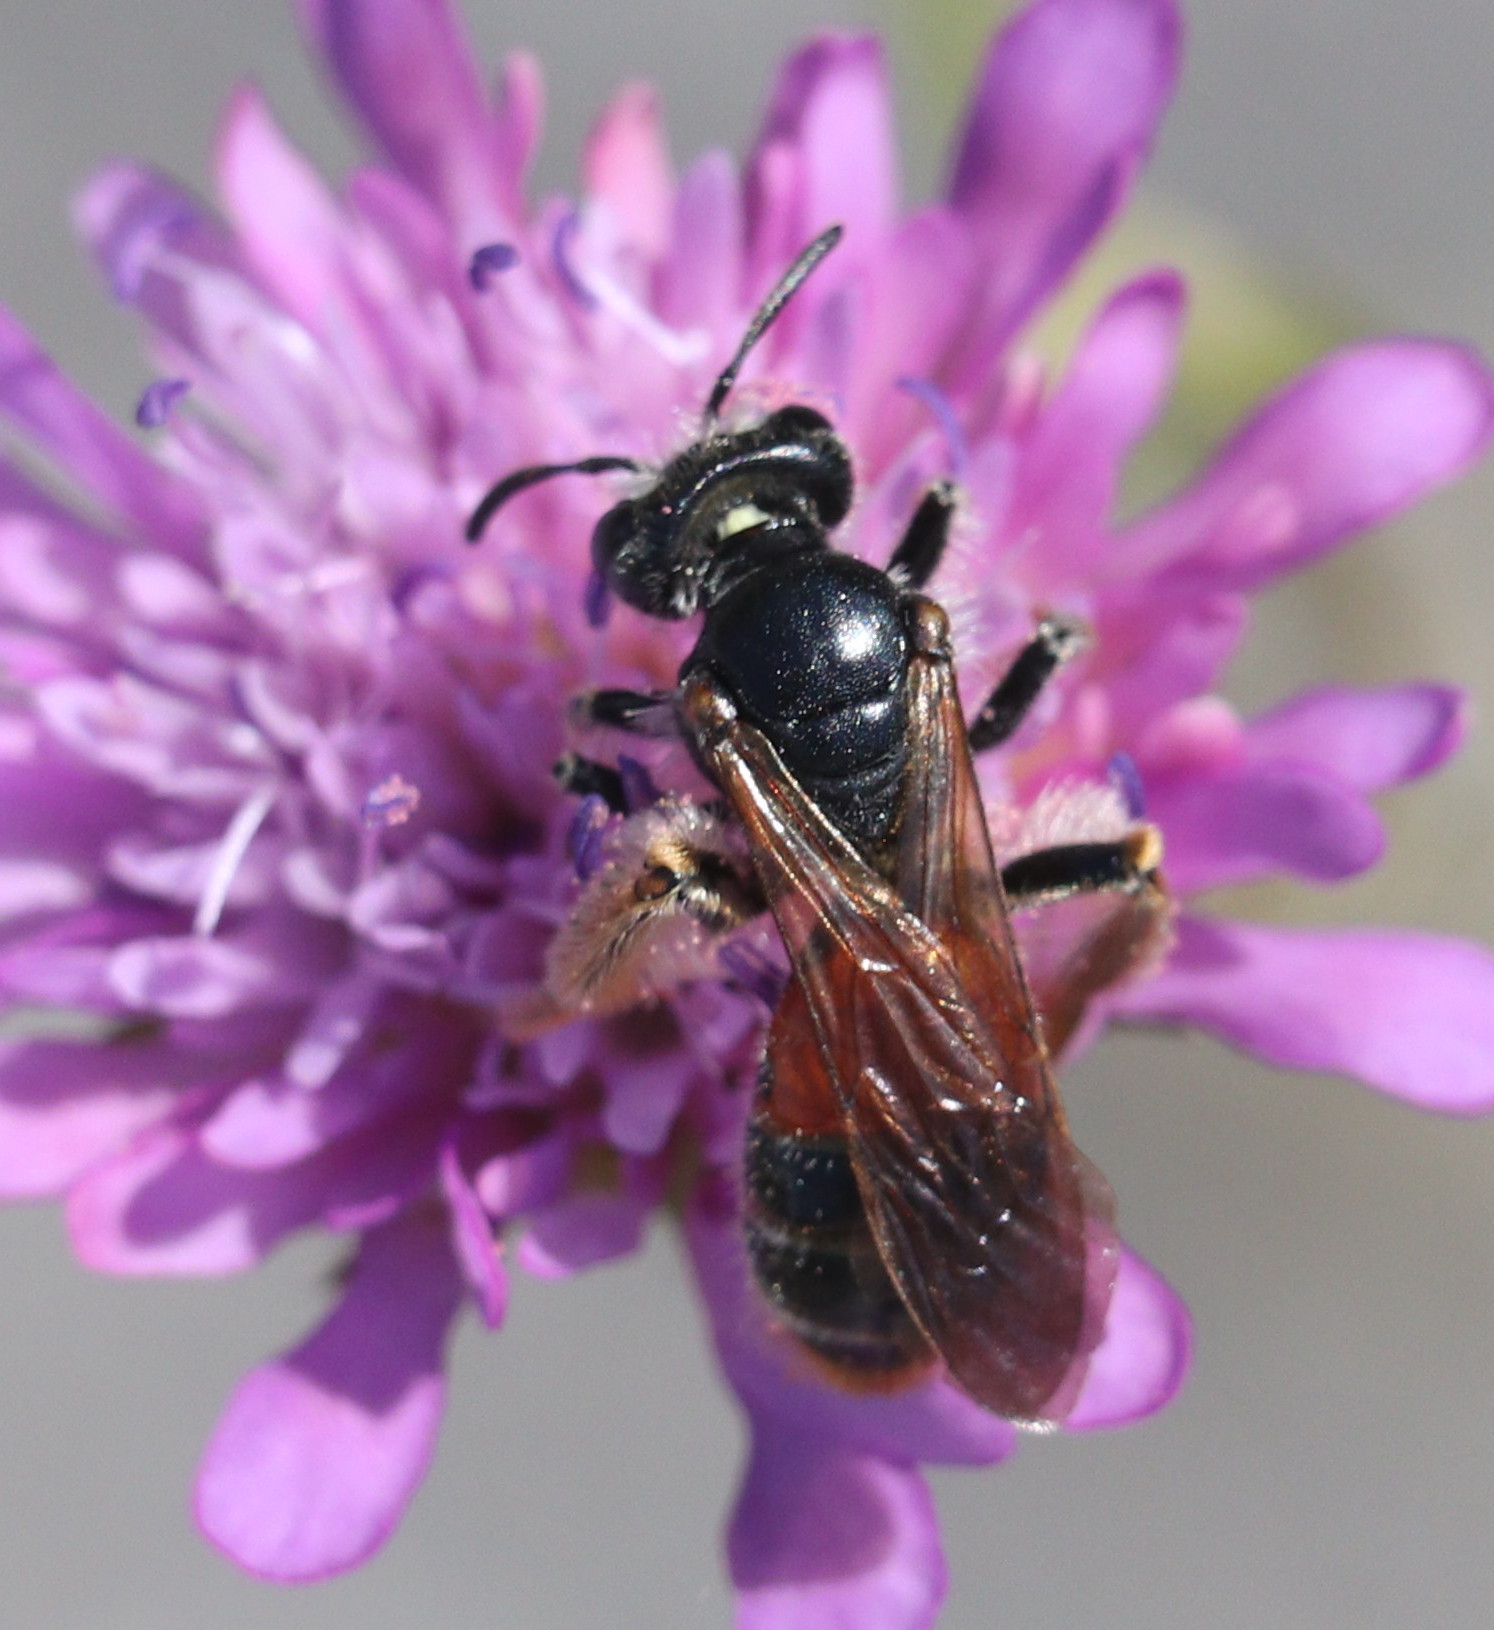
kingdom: Animalia
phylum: Arthropoda
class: Insecta
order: Hymenoptera
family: Andrenidae
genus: Andrena
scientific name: Andrena hattorfiana
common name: Large scabious mining bee
